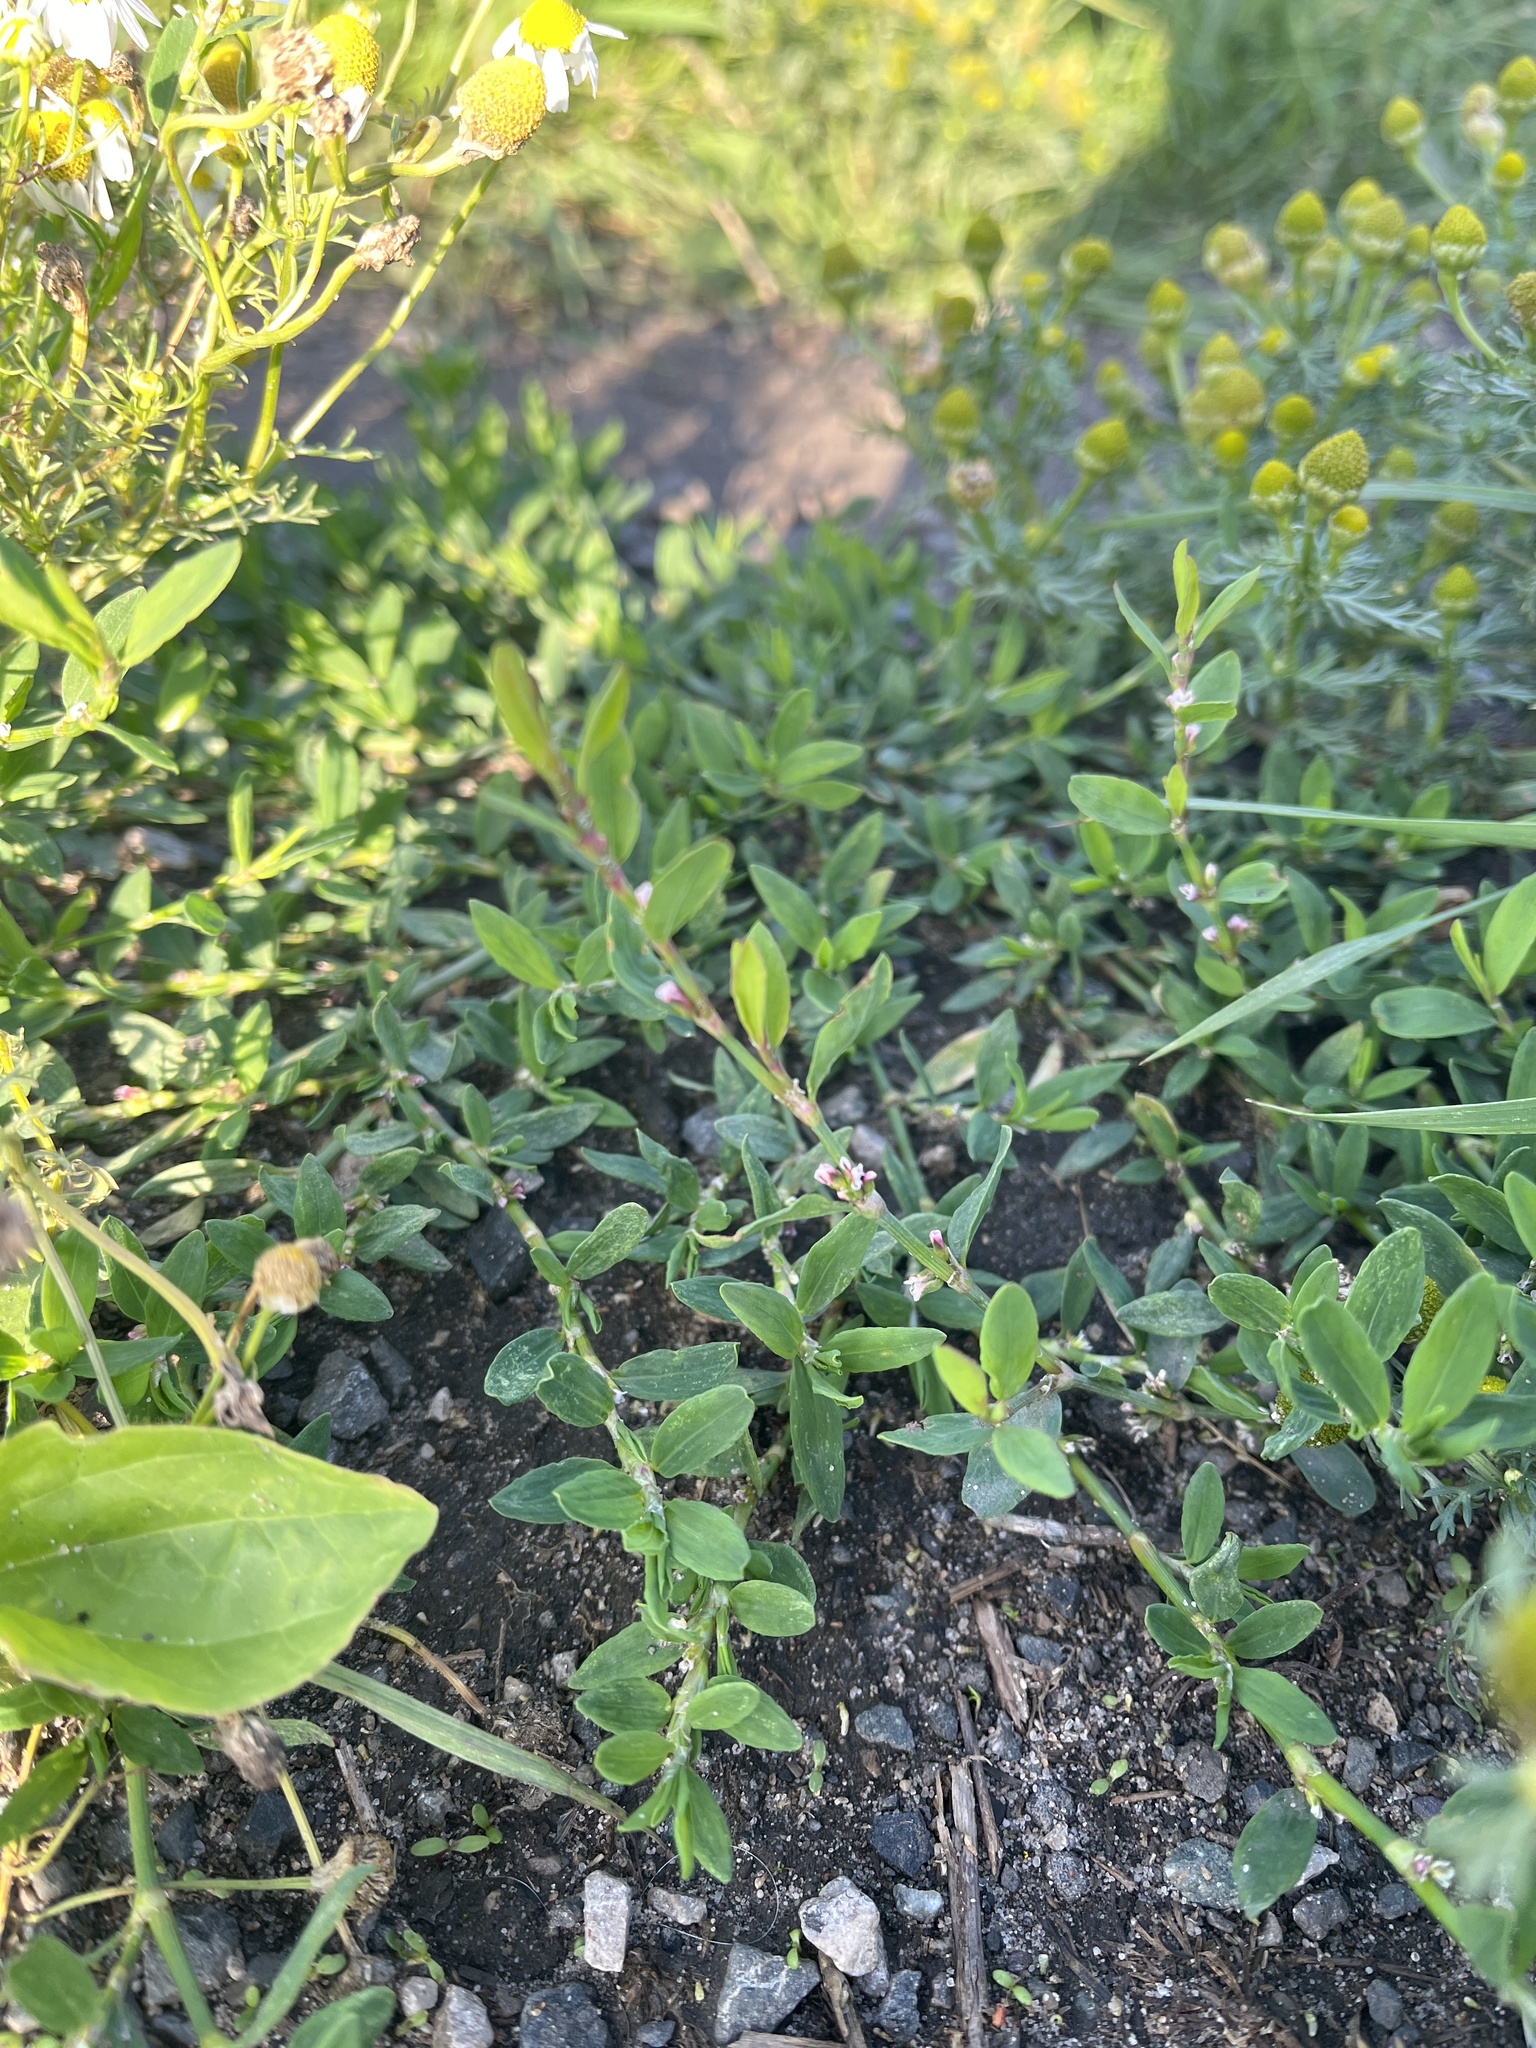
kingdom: Plantae
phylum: Tracheophyta
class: Magnoliopsida
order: Caryophyllales
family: Polygonaceae
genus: Polygonum
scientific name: Polygonum aviculare
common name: Prostrate knotweed
